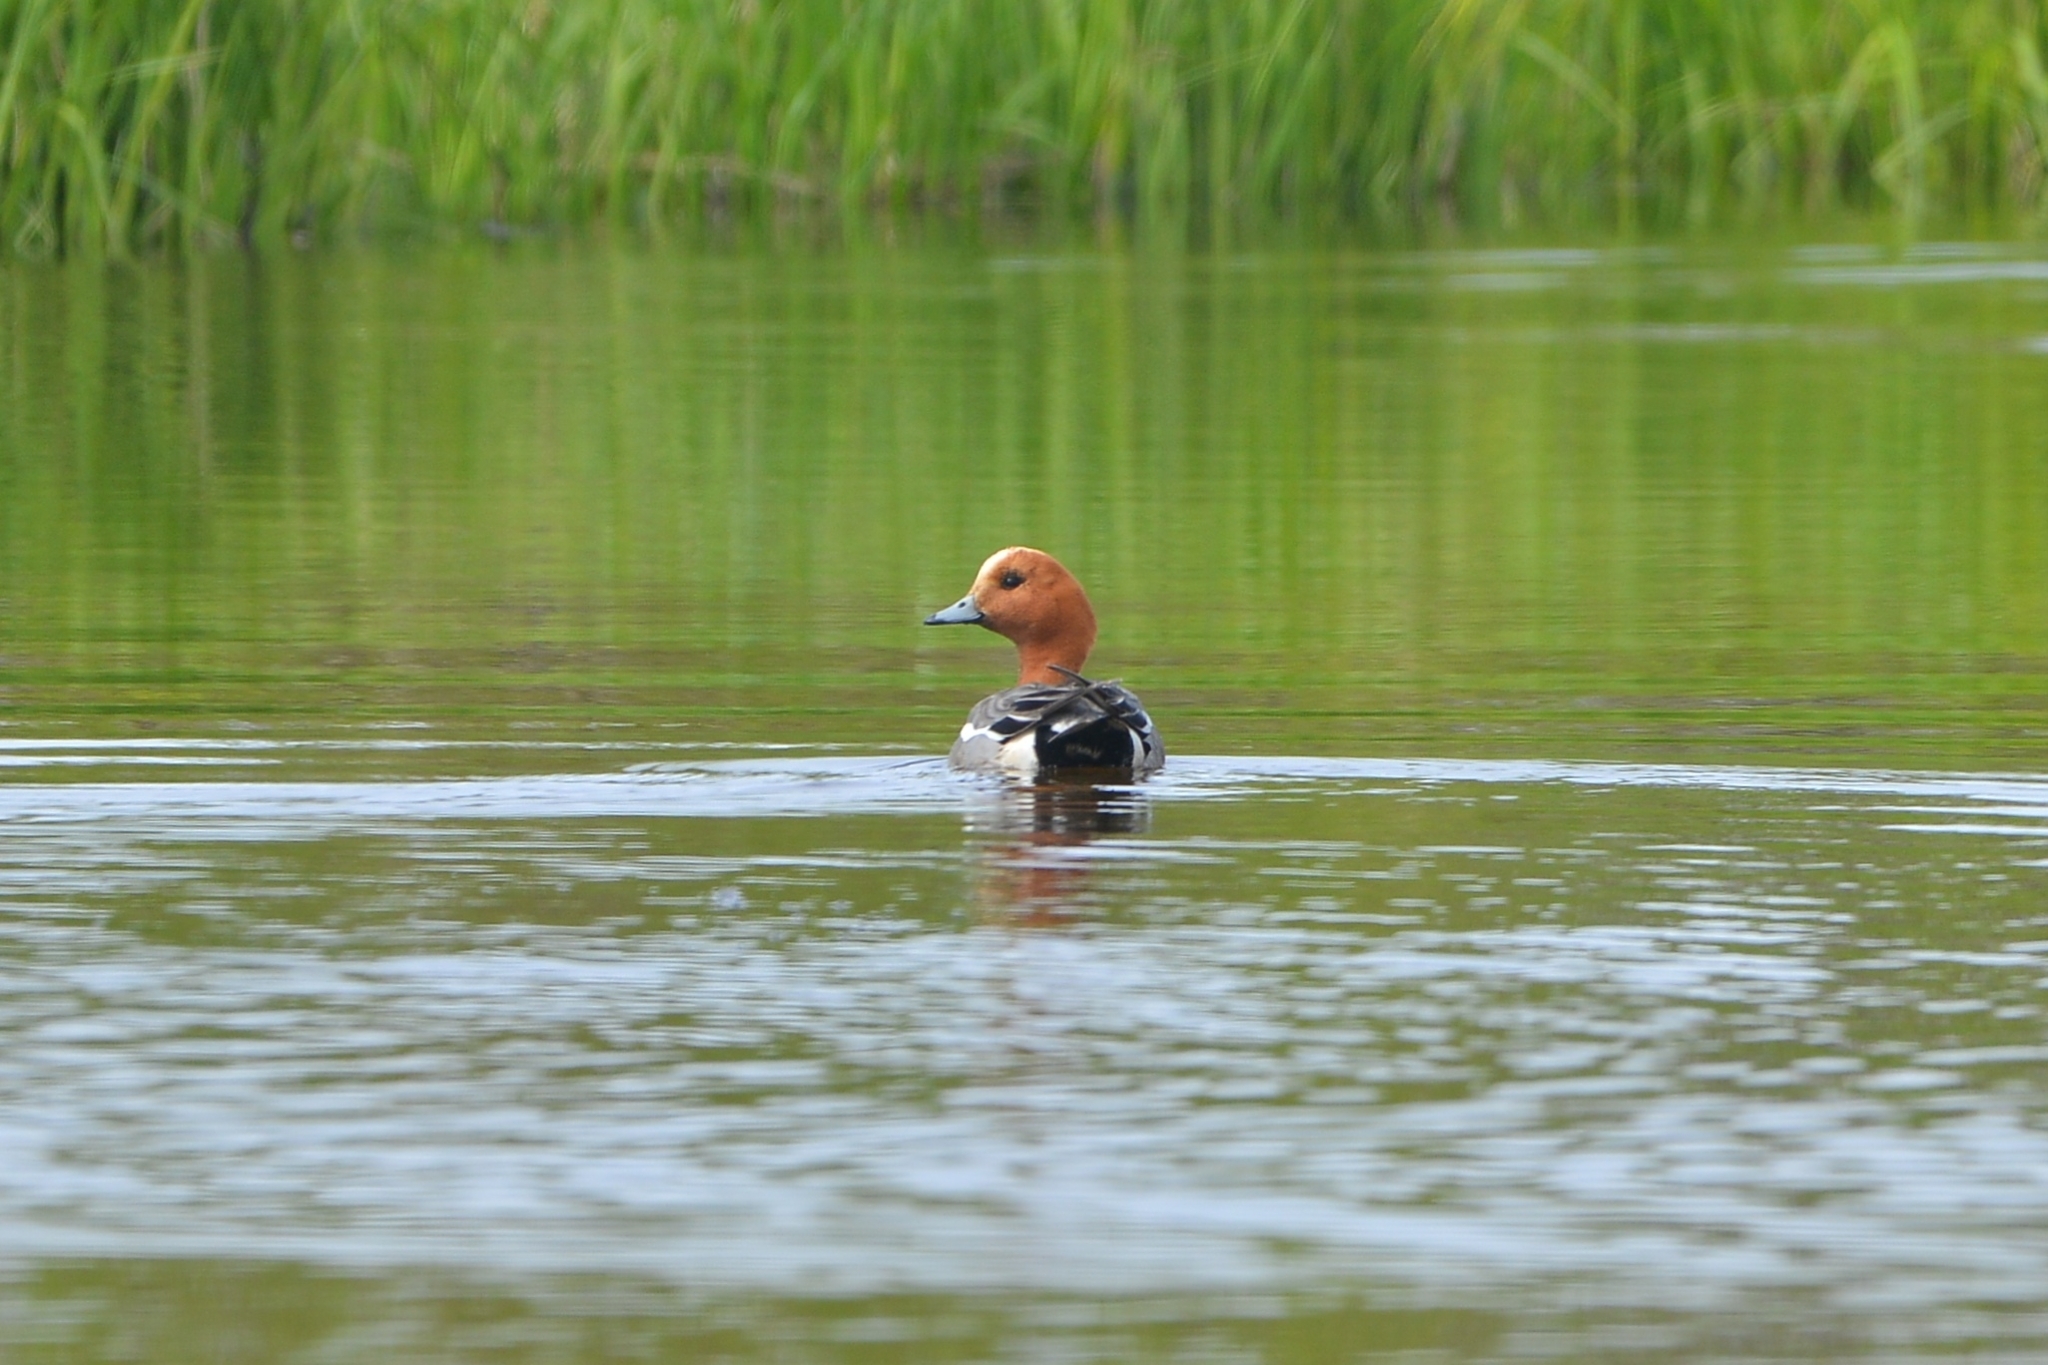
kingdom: Animalia
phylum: Chordata
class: Aves
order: Anseriformes
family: Anatidae
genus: Mareca
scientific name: Mareca penelope
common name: Eurasian wigeon
